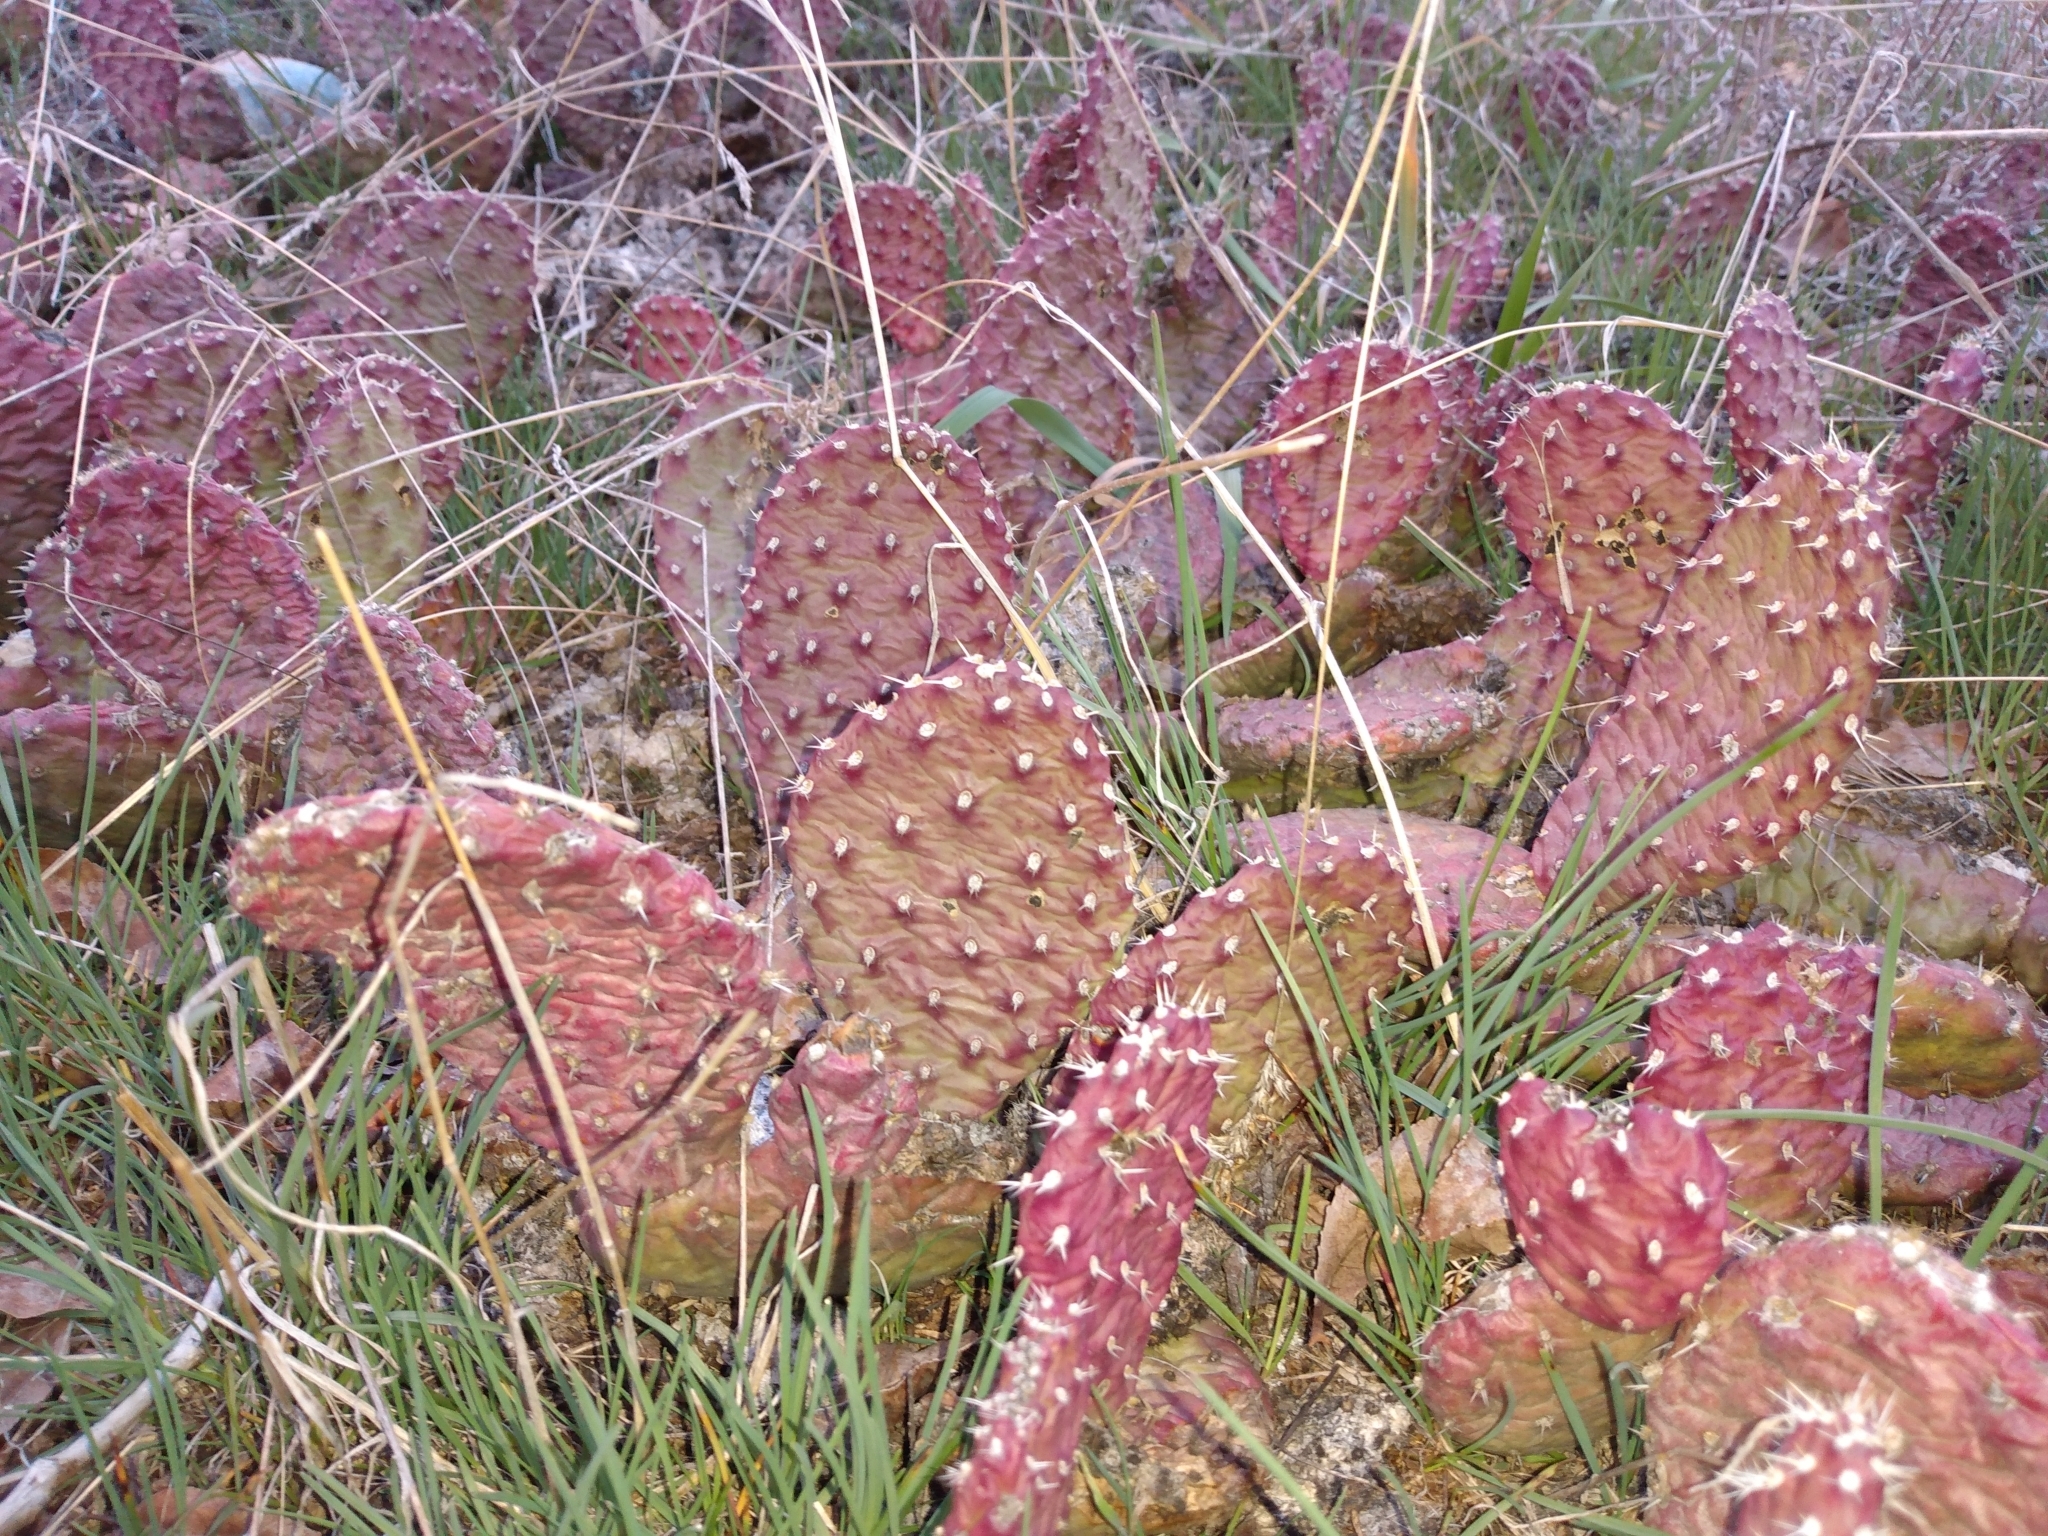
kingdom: Plantae
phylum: Tracheophyta
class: Magnoliopsida
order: Caryophyllales
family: Cactaceae
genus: Opuntia
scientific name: Opuntia polyacantha
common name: Plains prickly-pear
